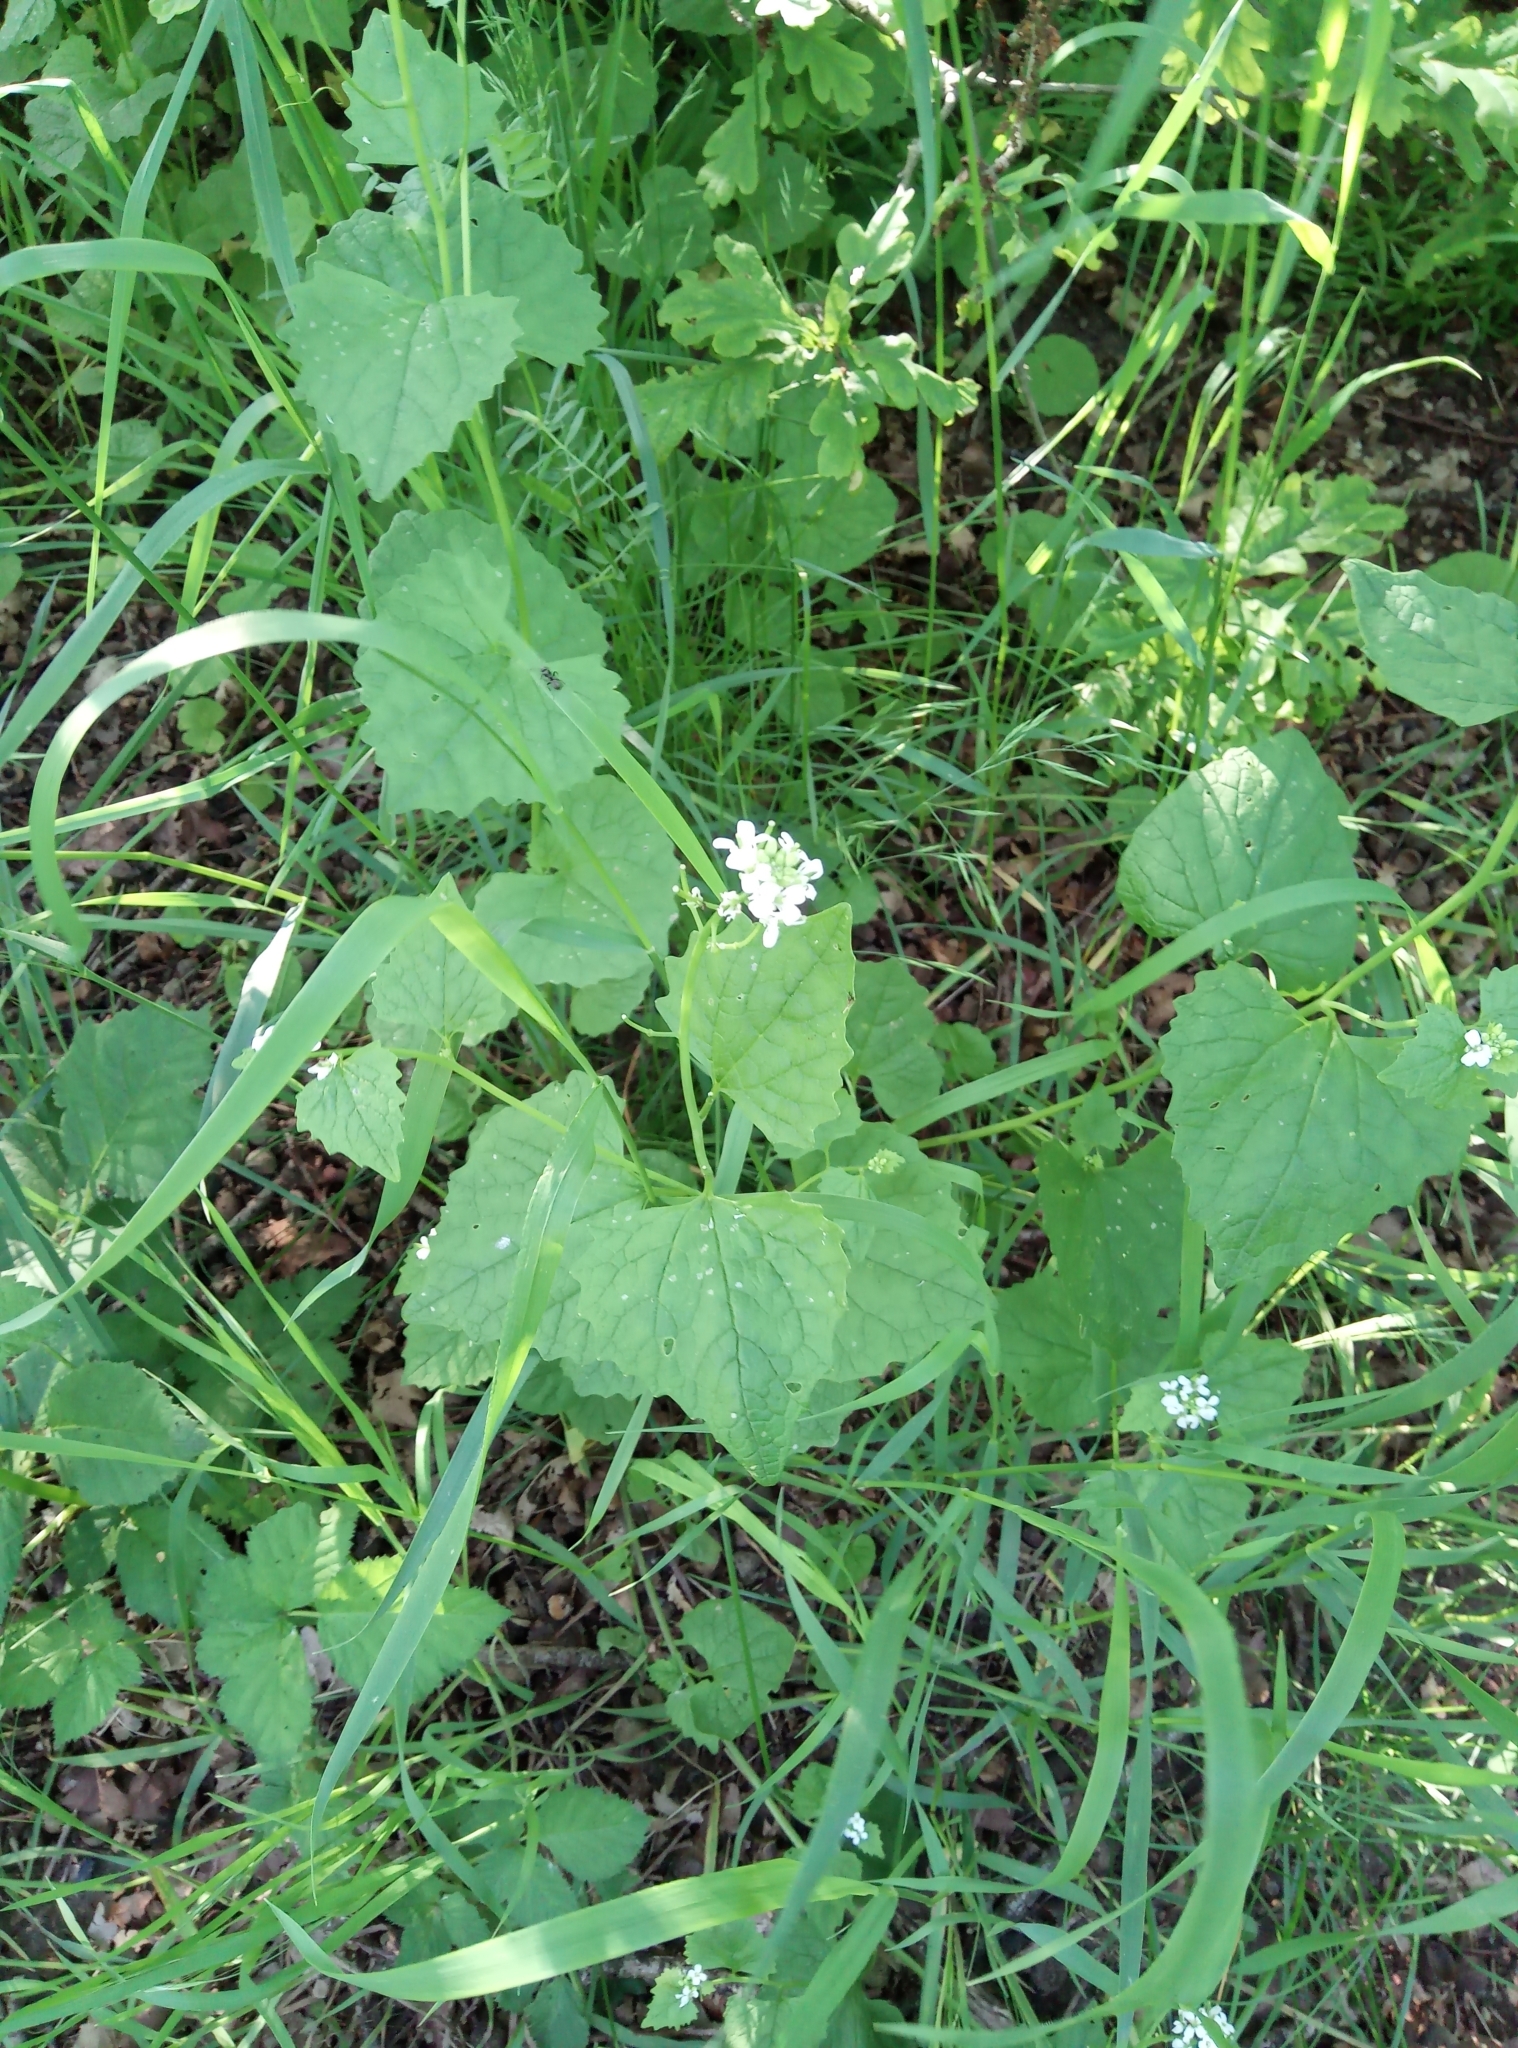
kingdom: Plantae
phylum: Tracheophyta
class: Magnoliopsida
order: Brassicales
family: Brassicaceae
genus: Alliaria
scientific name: Alliaria petiolata
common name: Garlic mustard
